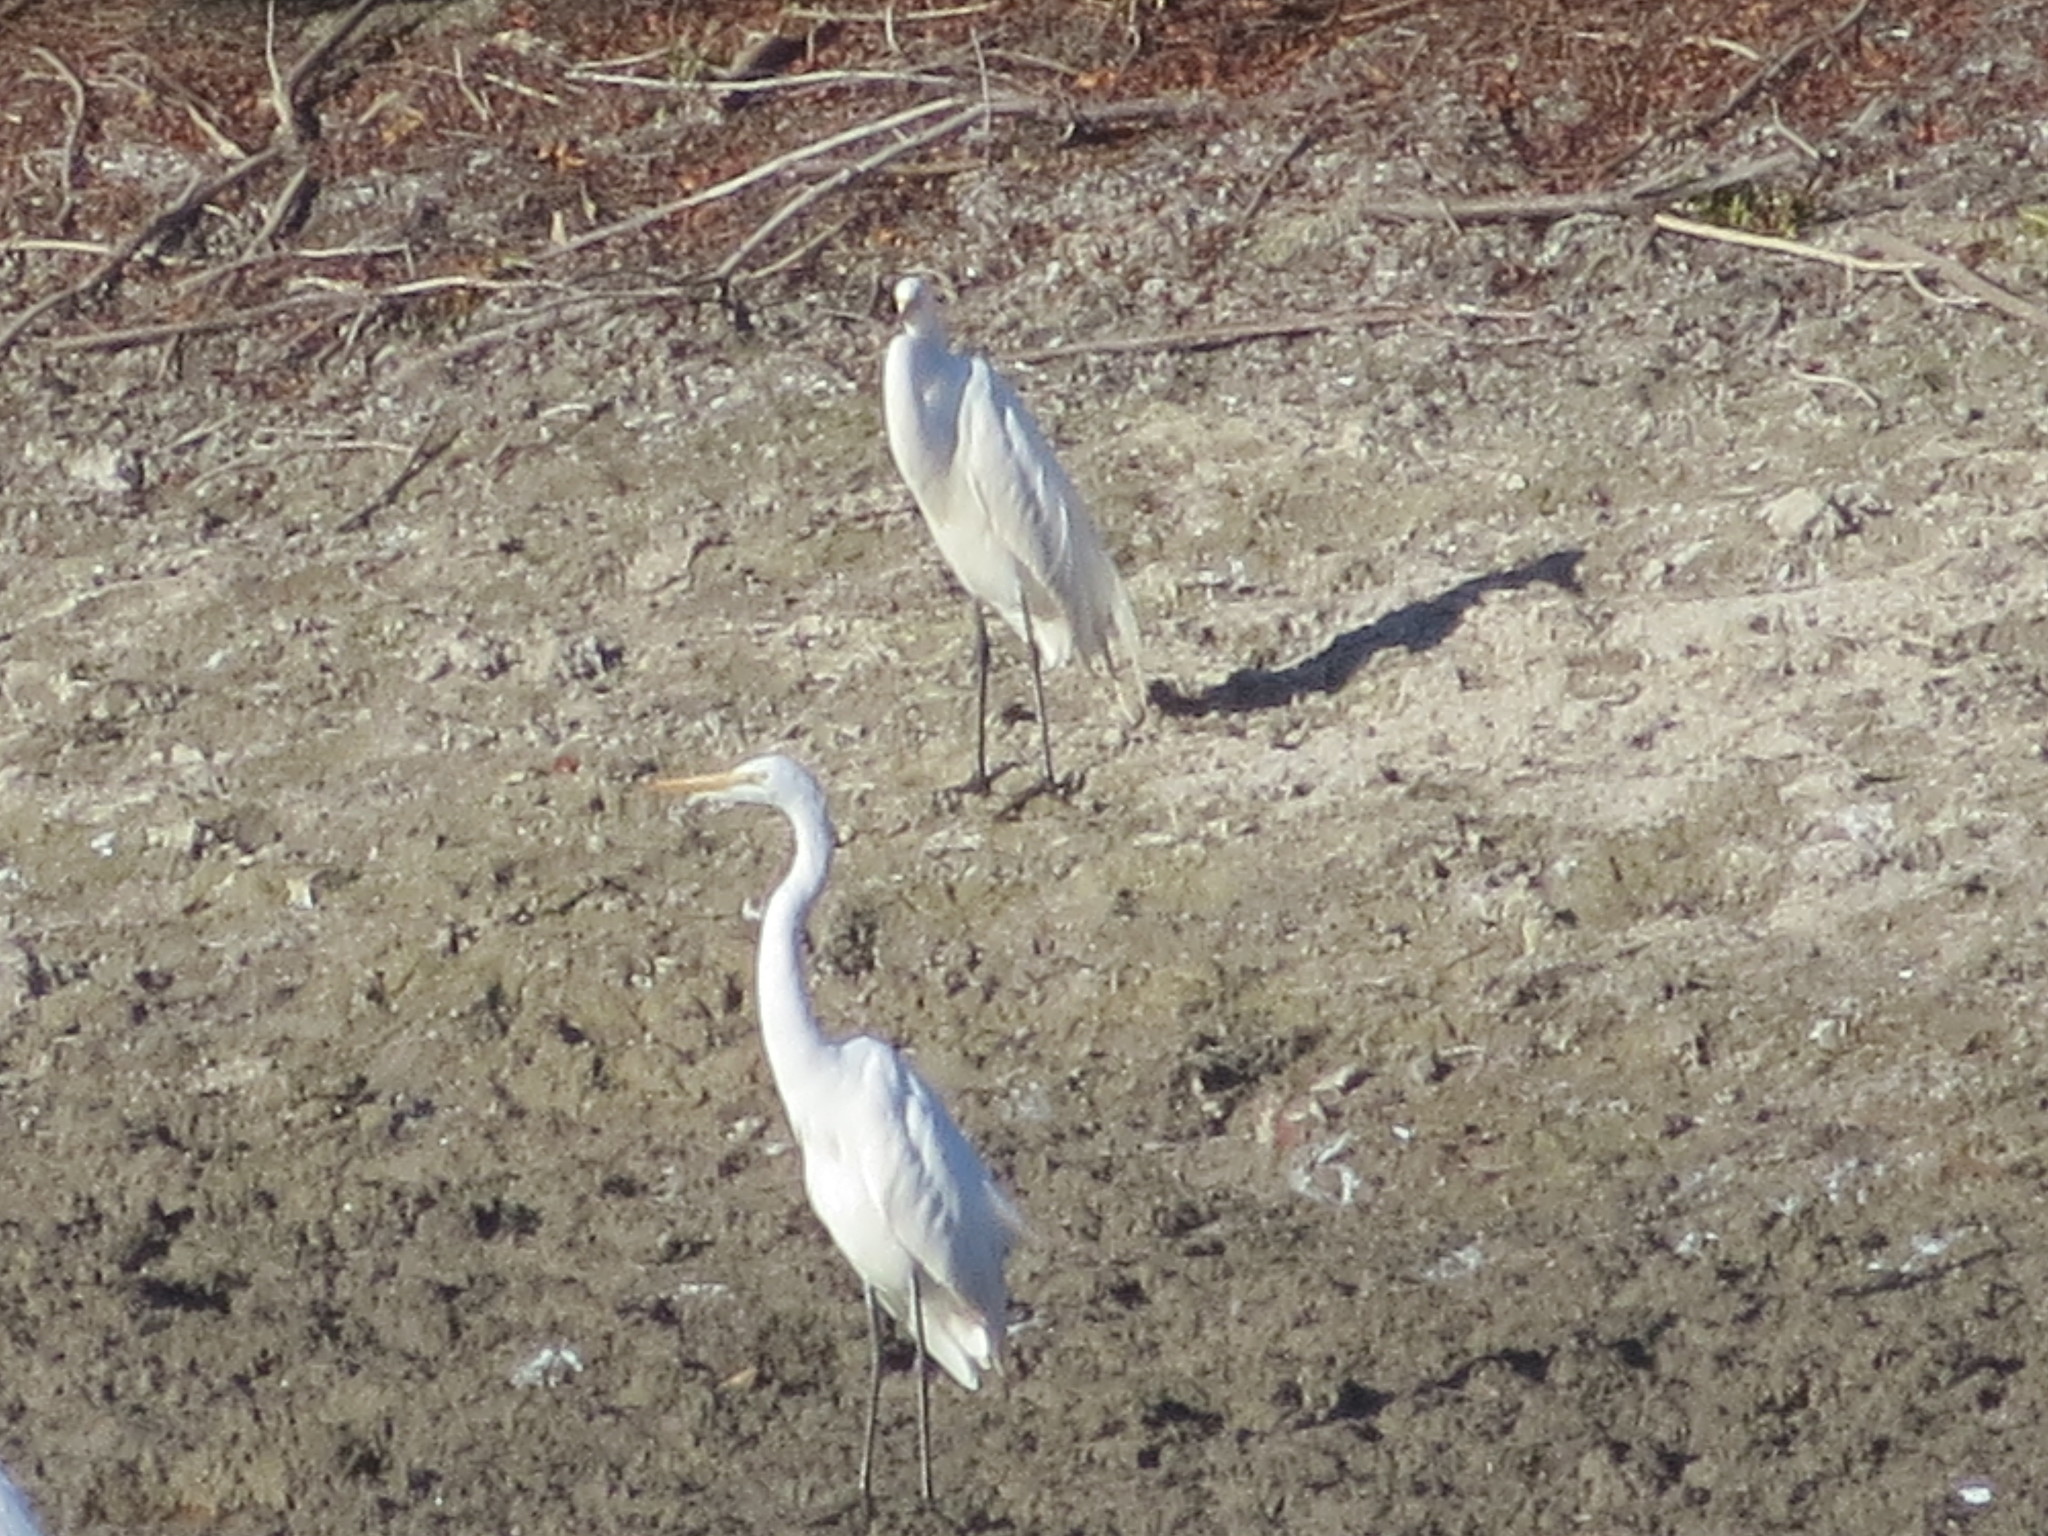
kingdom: Animalia
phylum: Chordata
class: Aves
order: Pelecaniformes
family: Ardeidae
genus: Ardea
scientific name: Ardea alba
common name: Great egret
